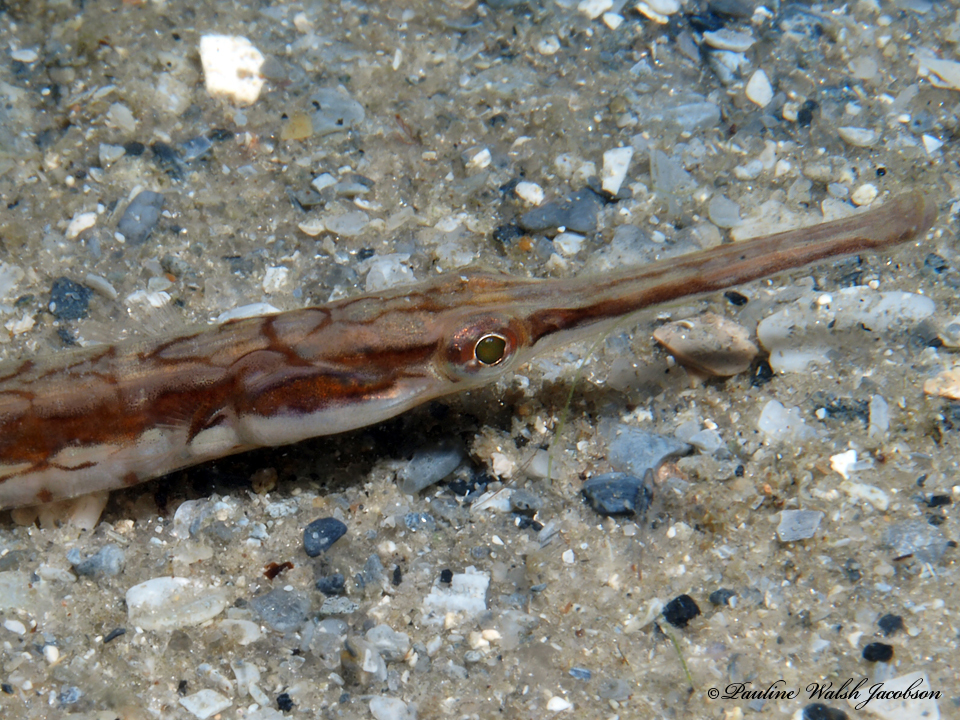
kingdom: Animalia
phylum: Chordata
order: Syngnathiformes
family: Syngnathidae
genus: Syngnathus
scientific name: Syngnathus louisianae
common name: Chain pipefish
